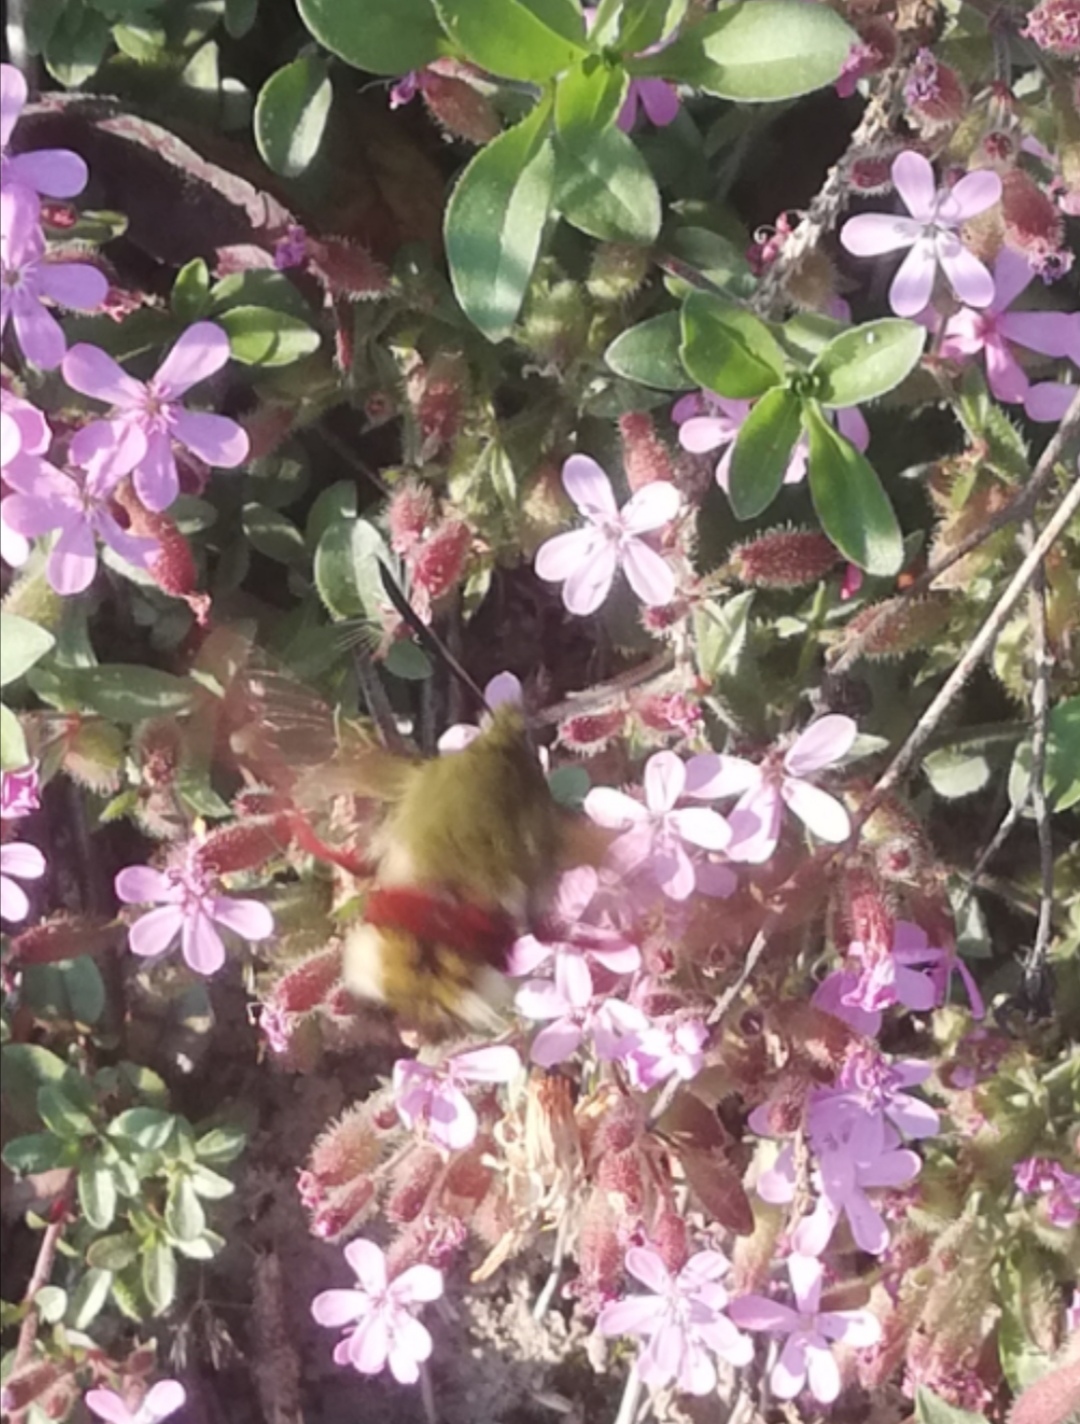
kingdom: Animalia
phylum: Arthropoda
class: Insecta
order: Lepidoptera
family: Sphingidae
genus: Hemaris
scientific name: Hemaris fuciformis
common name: Broad-bordered bee hawk-moth
